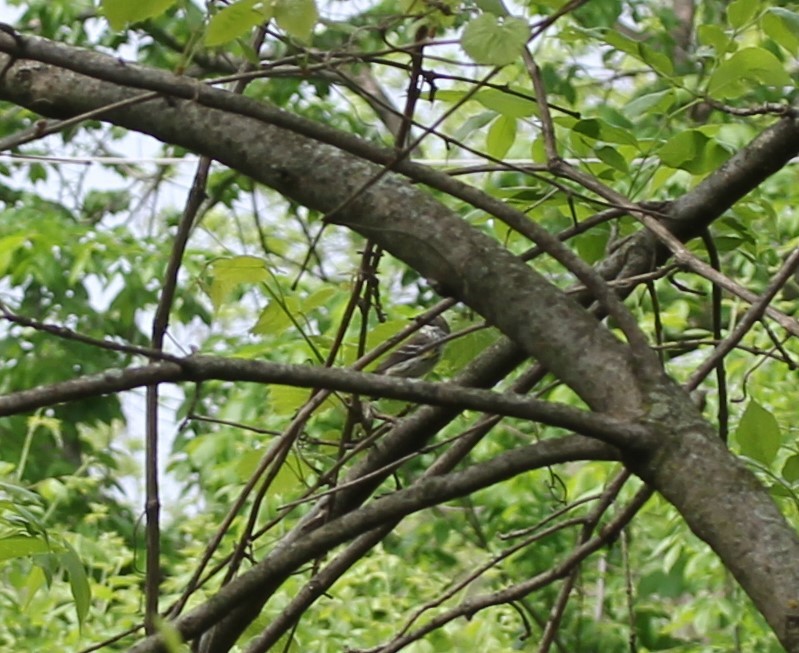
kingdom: Animalia
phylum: Chordata
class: Aves
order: Passeriformes
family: Parulidae
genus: Setophaga
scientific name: Setophaga coronata
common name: Myrtle warbler
